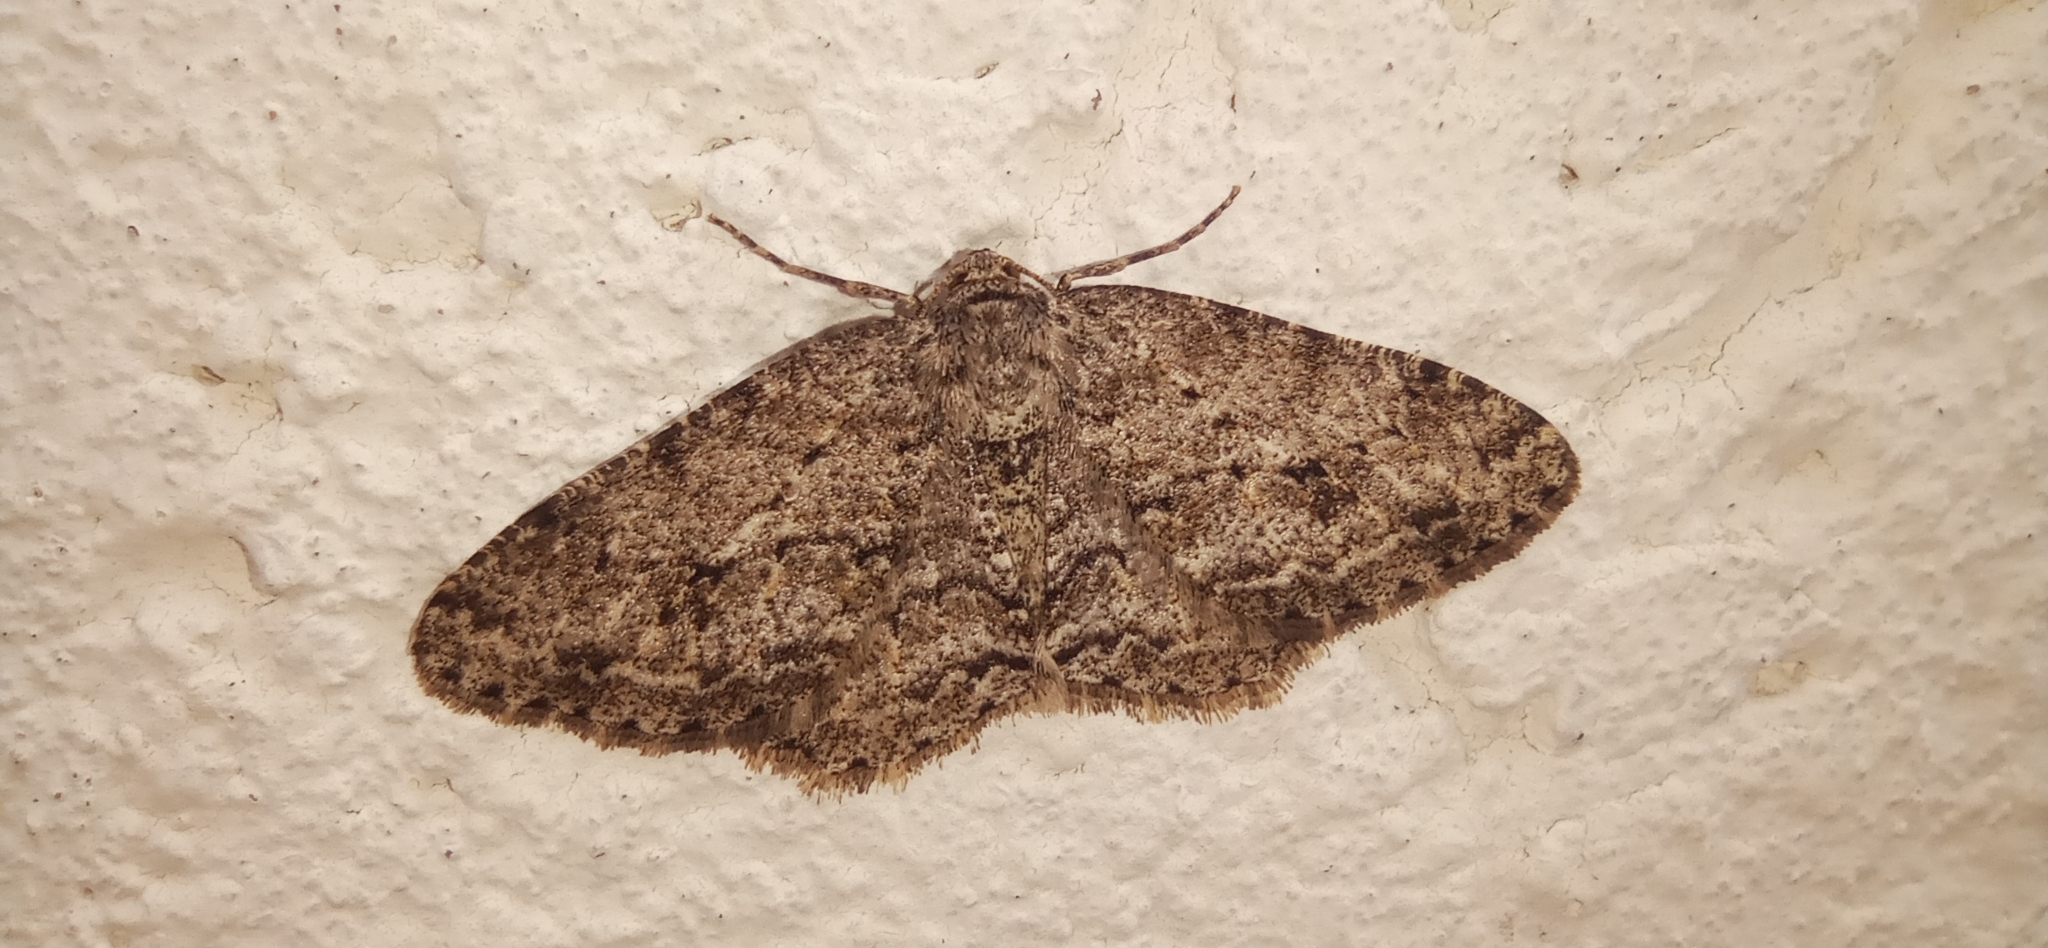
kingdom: Animalia
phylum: Arthropoda
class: Insecta
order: Lepidoptera
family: Geometridae
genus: Ectropis
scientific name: Ectropis crepuscularia
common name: Engrailed
